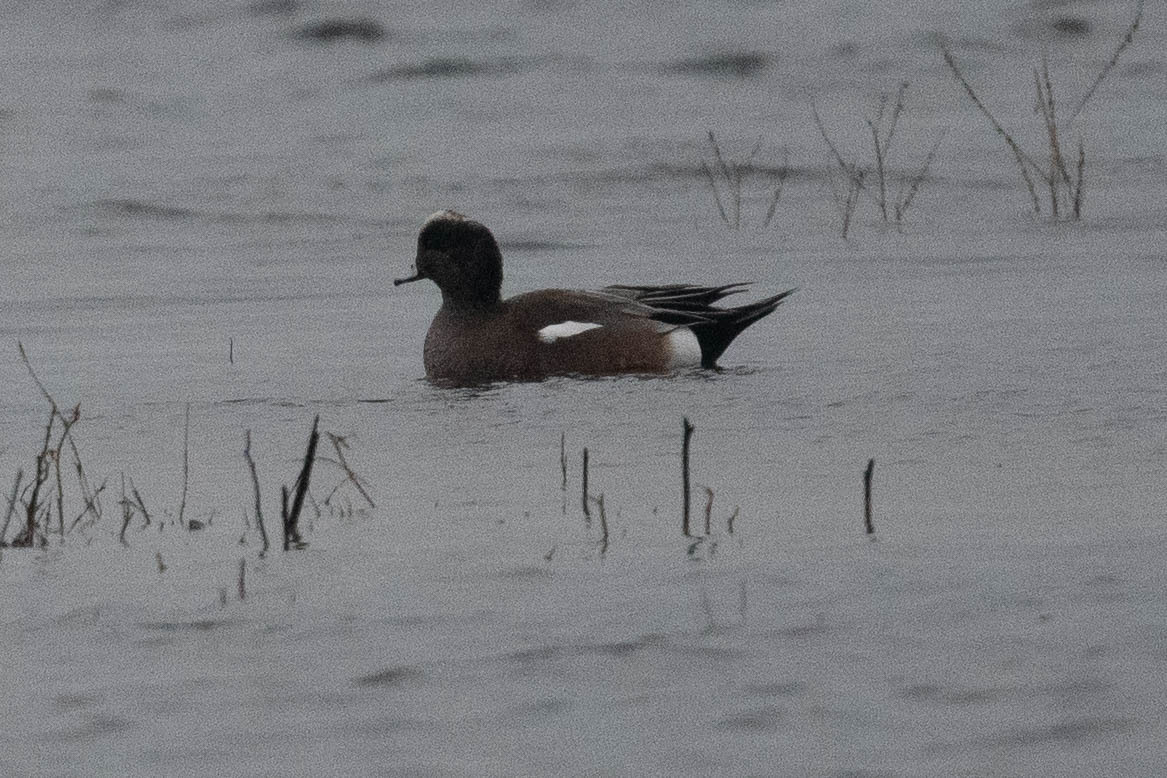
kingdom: Animalia
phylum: Chordata
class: Aves
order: Anseriformes
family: Anatidae
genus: Mareca
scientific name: Mareca americana
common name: American wigeon
